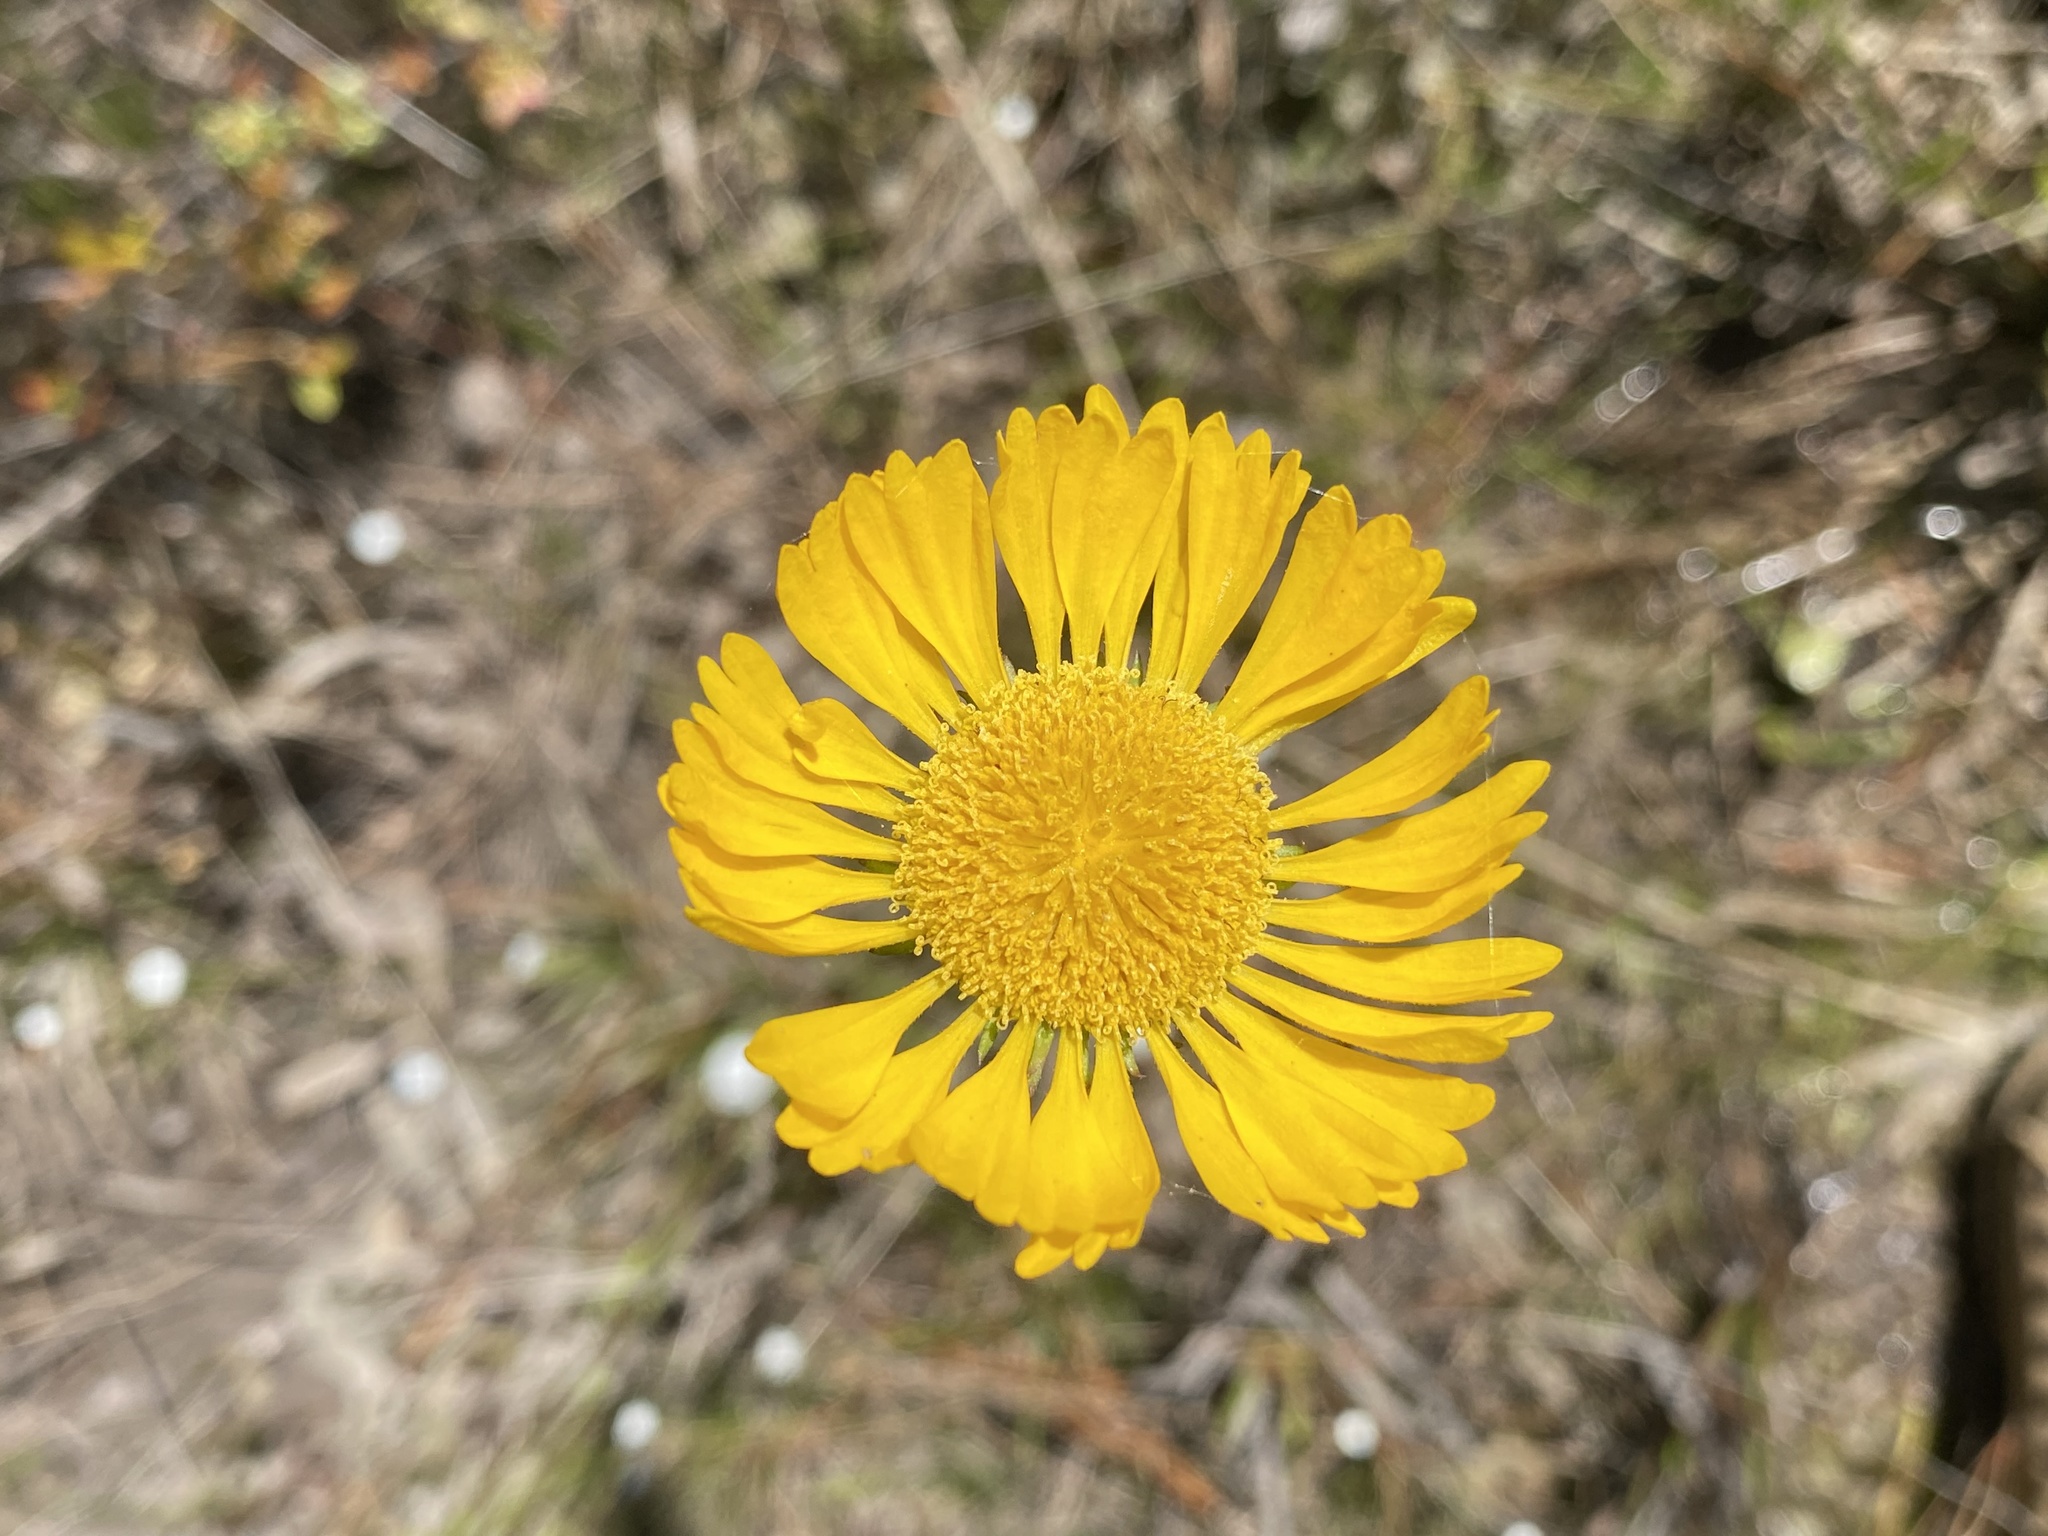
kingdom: Plantae
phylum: Tracheophyta
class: Magnoliopsida
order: Asterales
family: Asteraceae
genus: Helenium
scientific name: Helenium pinnatifidum
